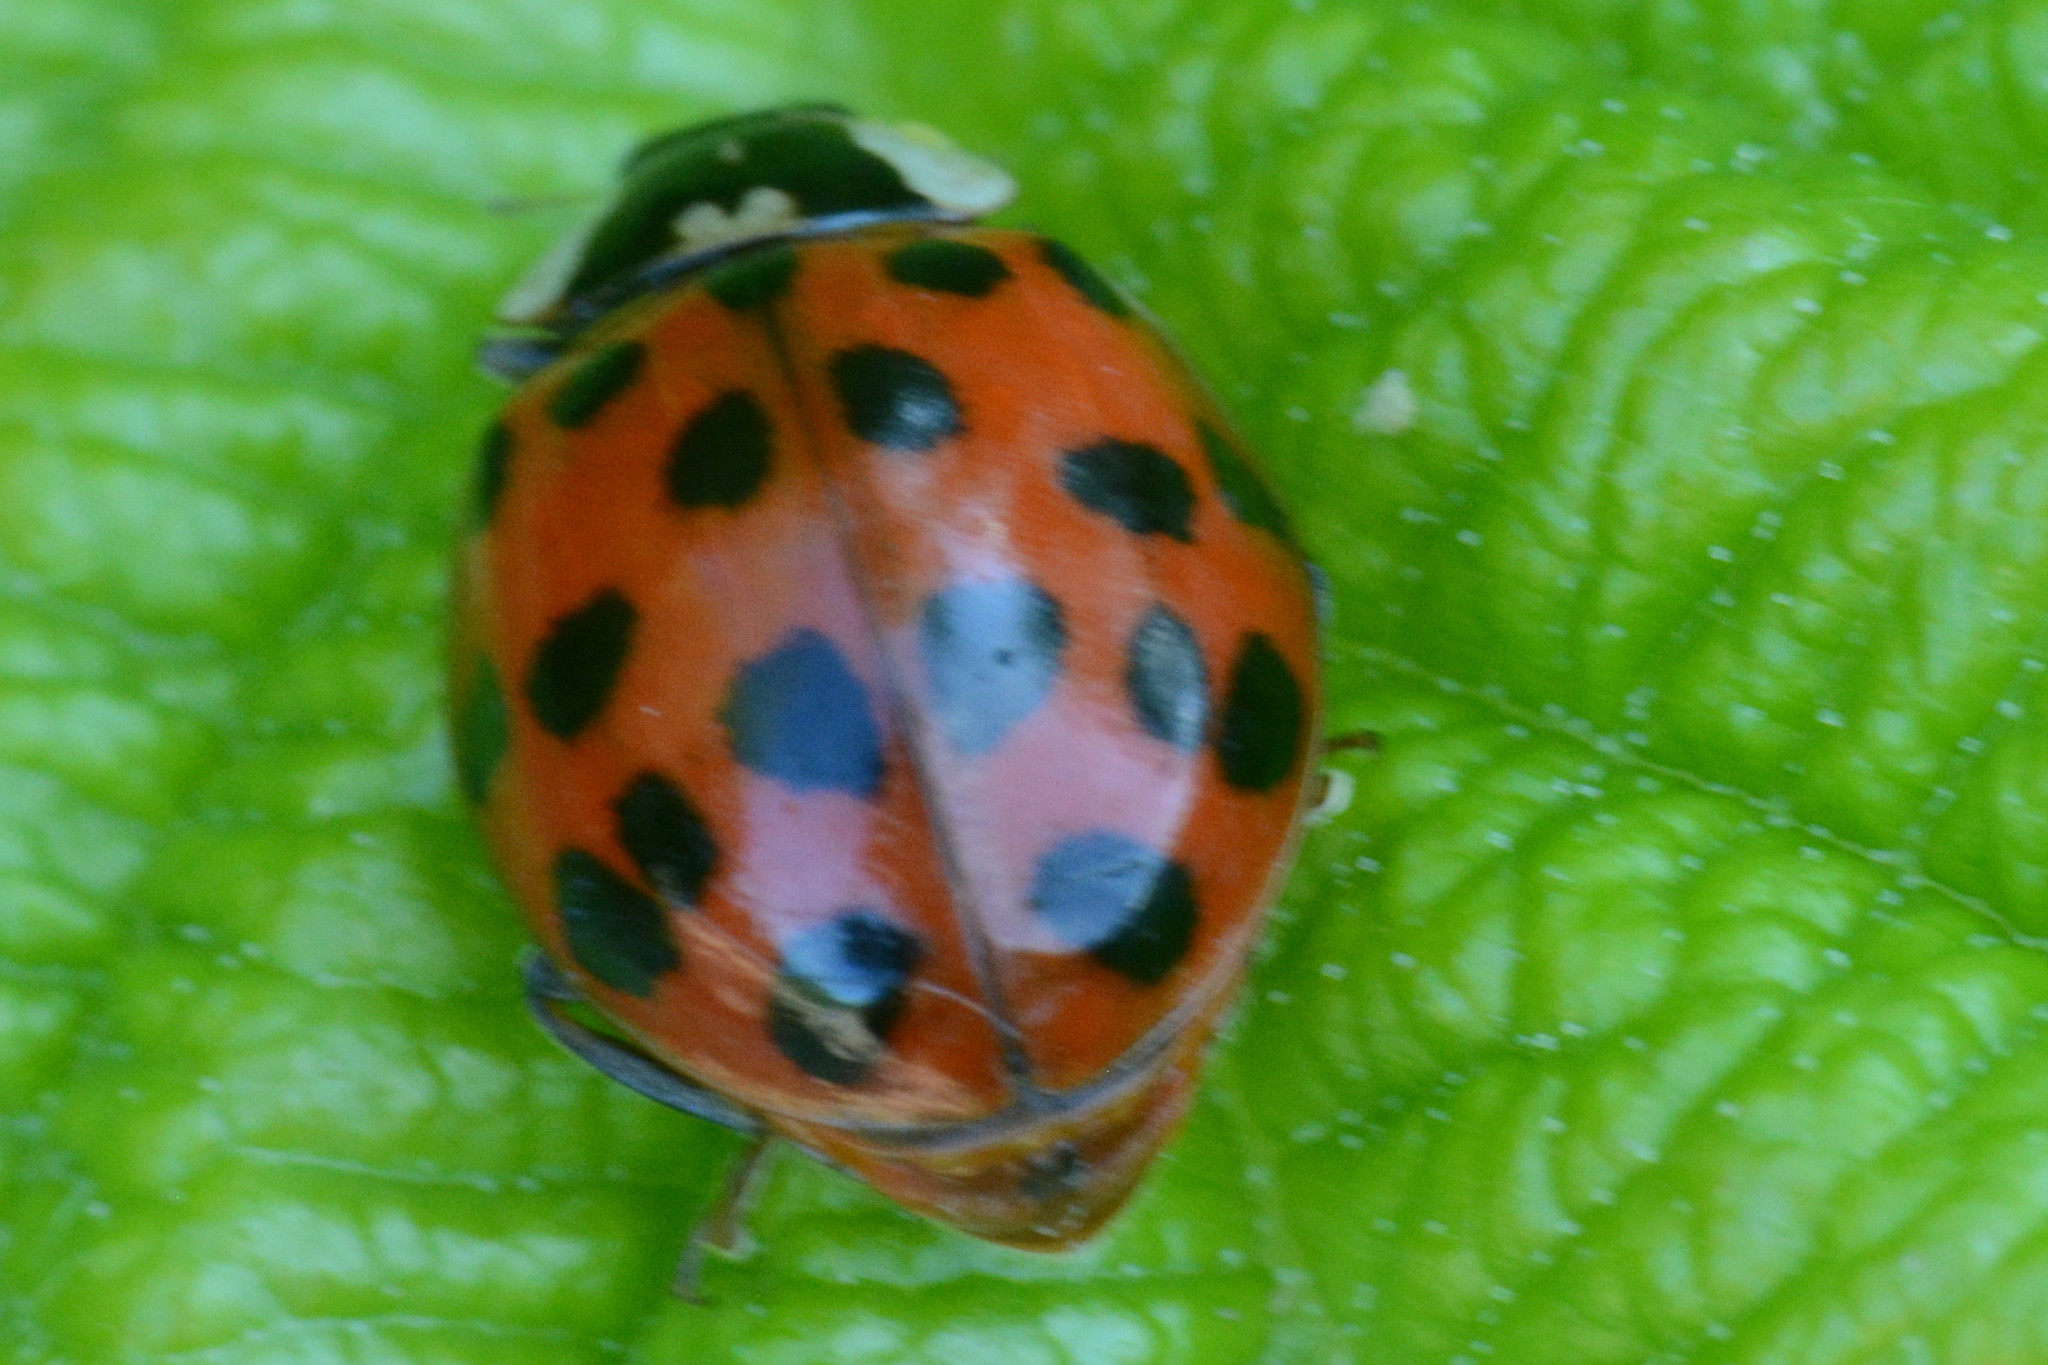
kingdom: Animalia
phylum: Arthropoda
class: Insecta
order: Coleoptera
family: Coccinellidae
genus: Harmonia
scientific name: Harmonia axyridis
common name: Harlequin ladybird
